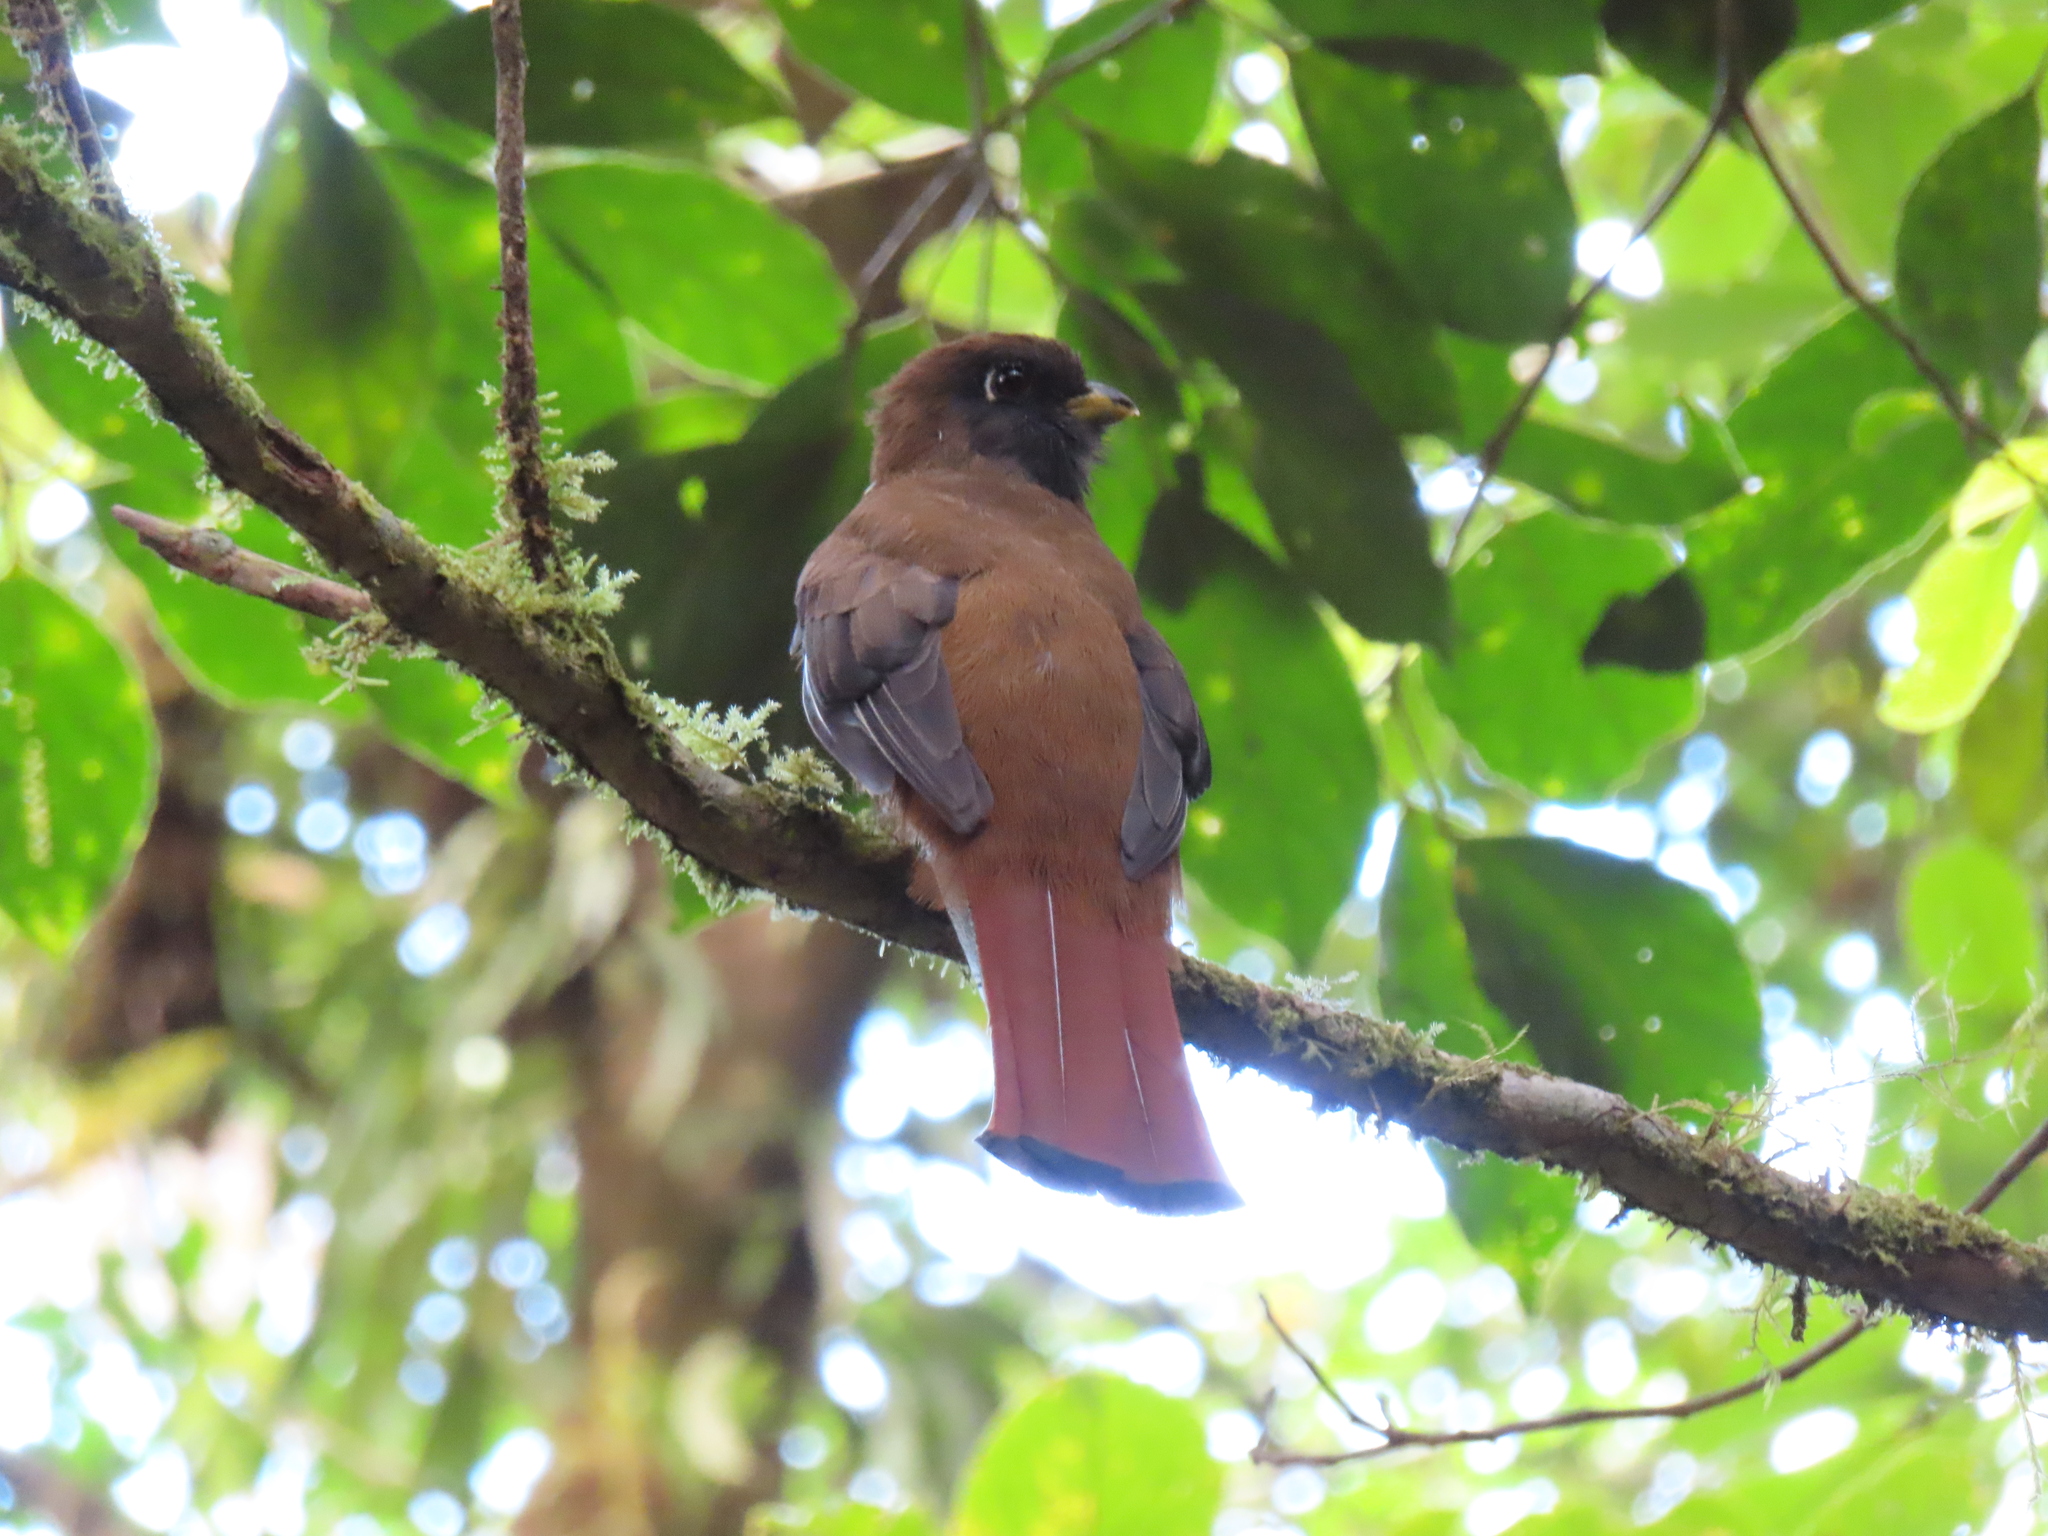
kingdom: Animalia
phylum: Chordata
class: Aves
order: Trogoniformes
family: Trogonidae
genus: Trogon
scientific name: Trogon collaris
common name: Collared trogon
